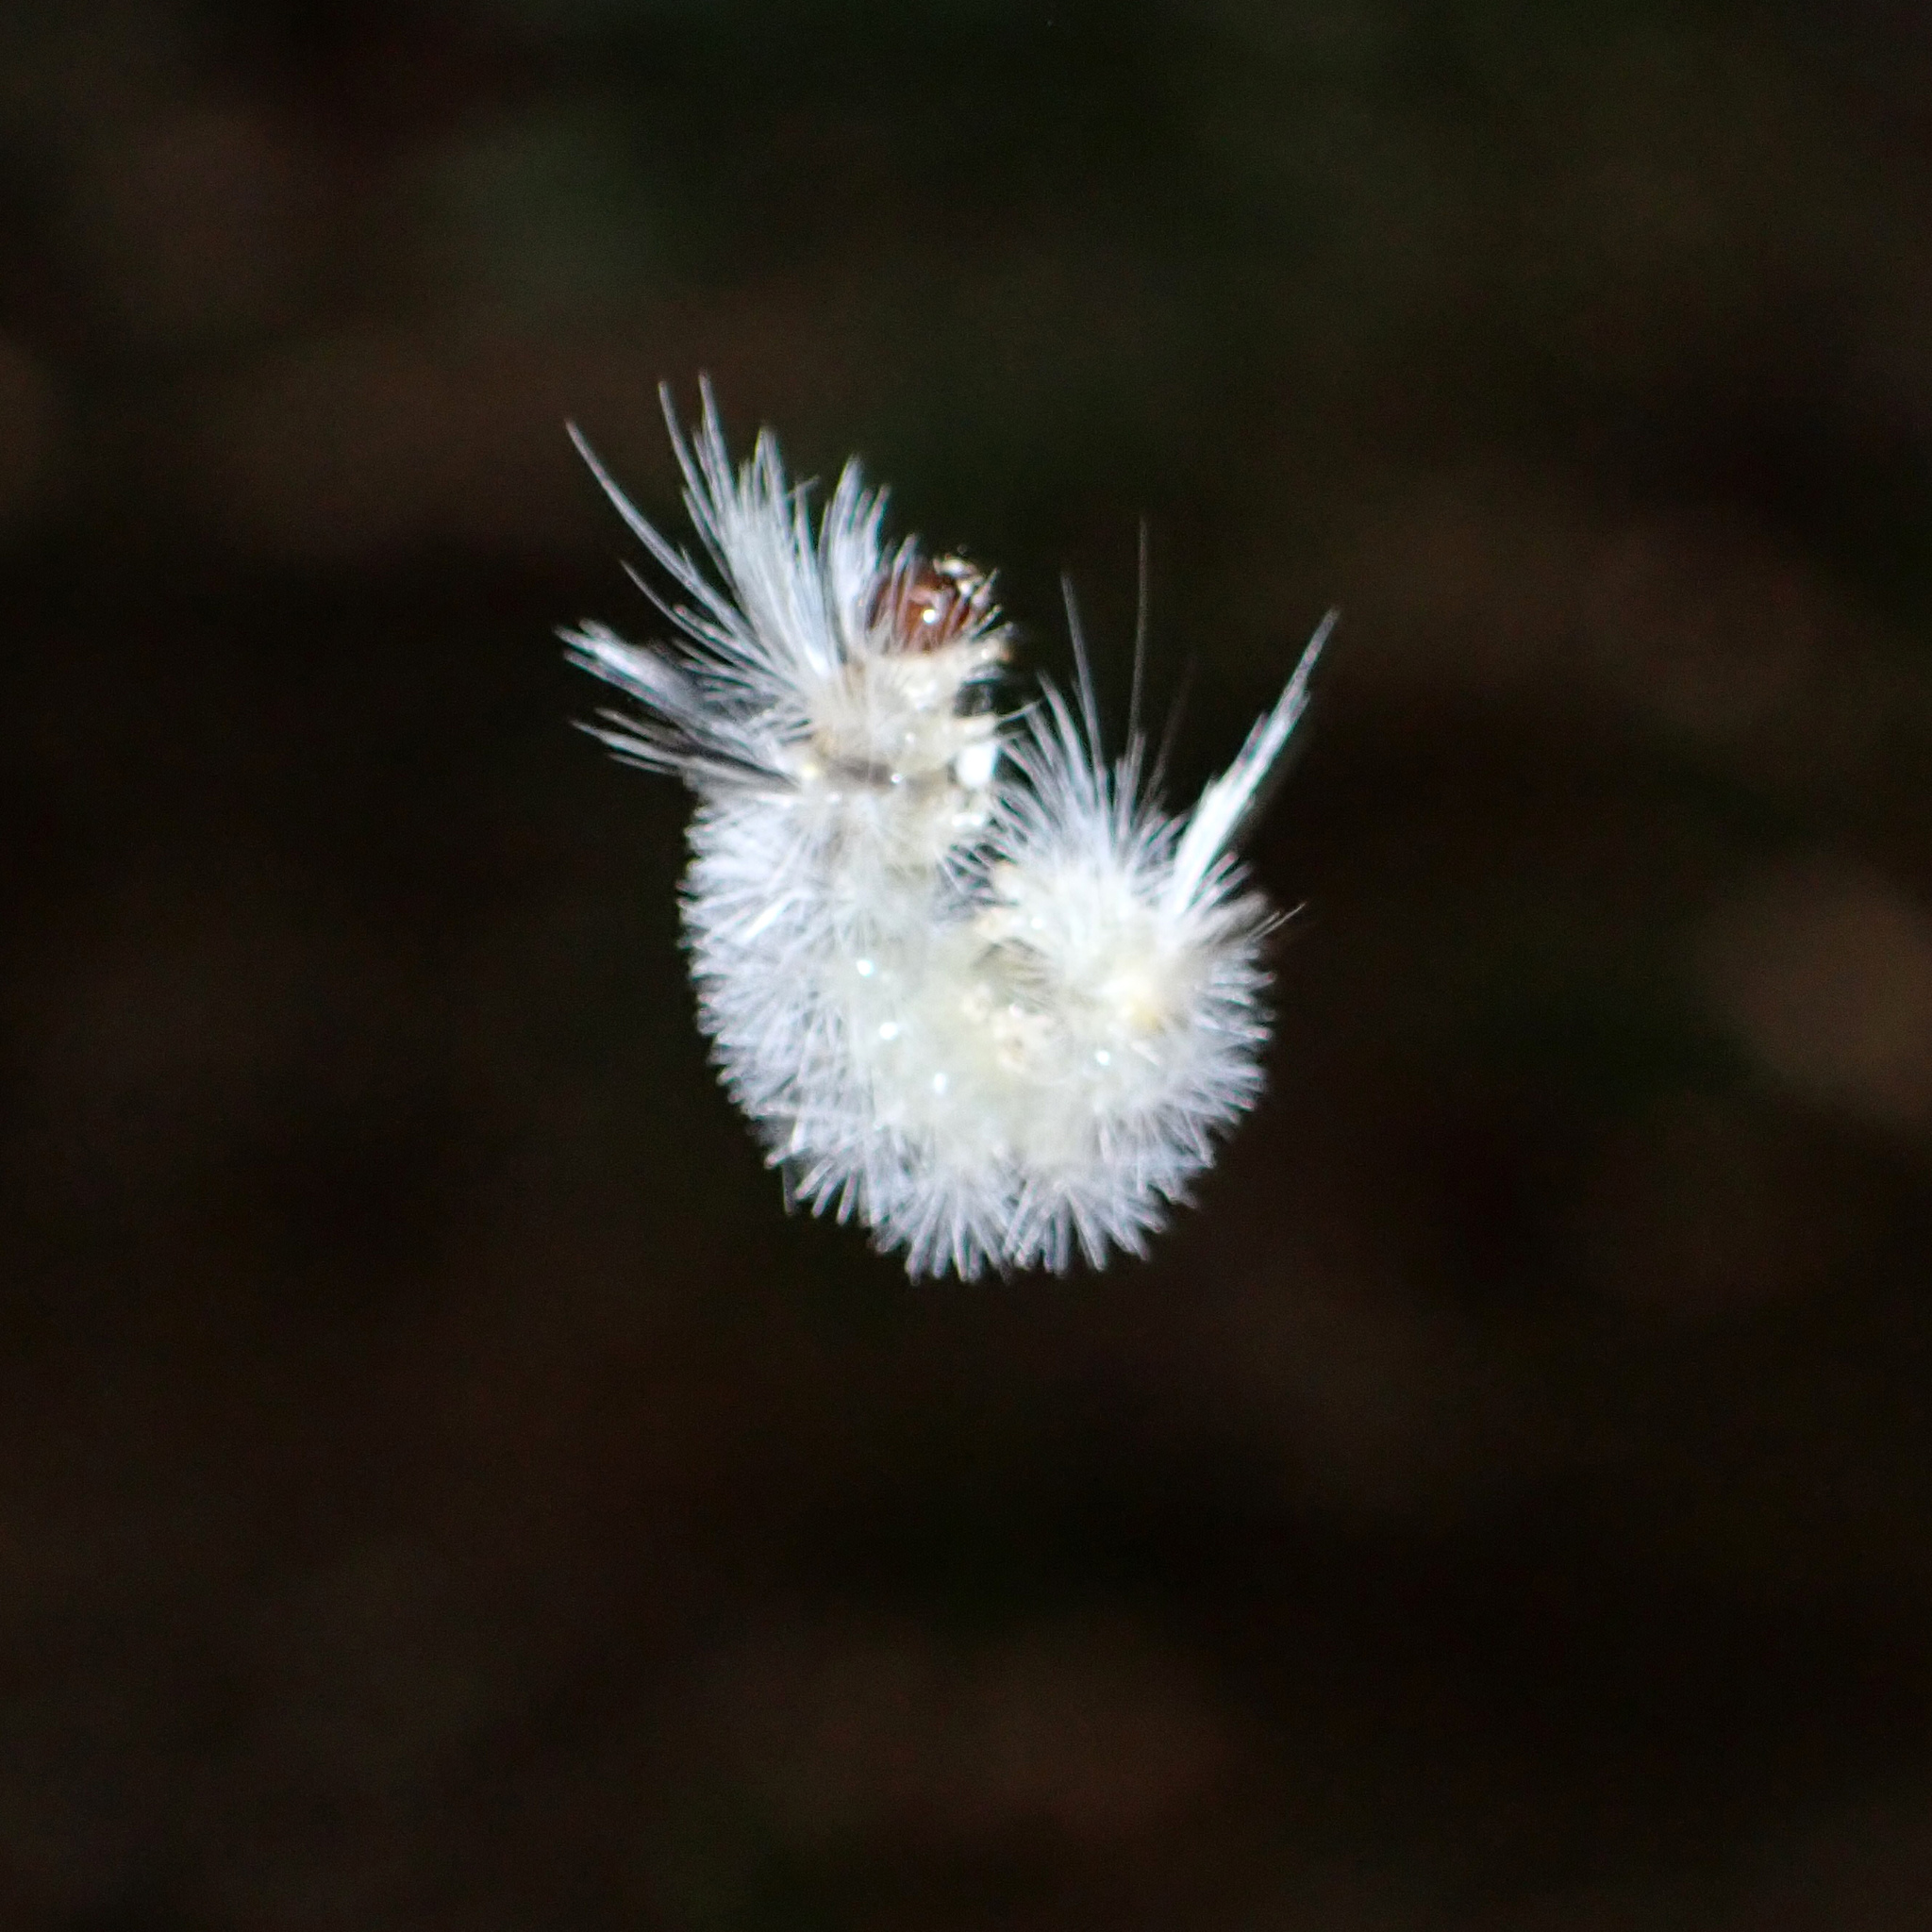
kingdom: Animalia
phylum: Arthropoda
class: Insecta
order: Lepidoptera
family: Erebidae
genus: Halysidota
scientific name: Halysidota tessellaris
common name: Banded tussock moth
